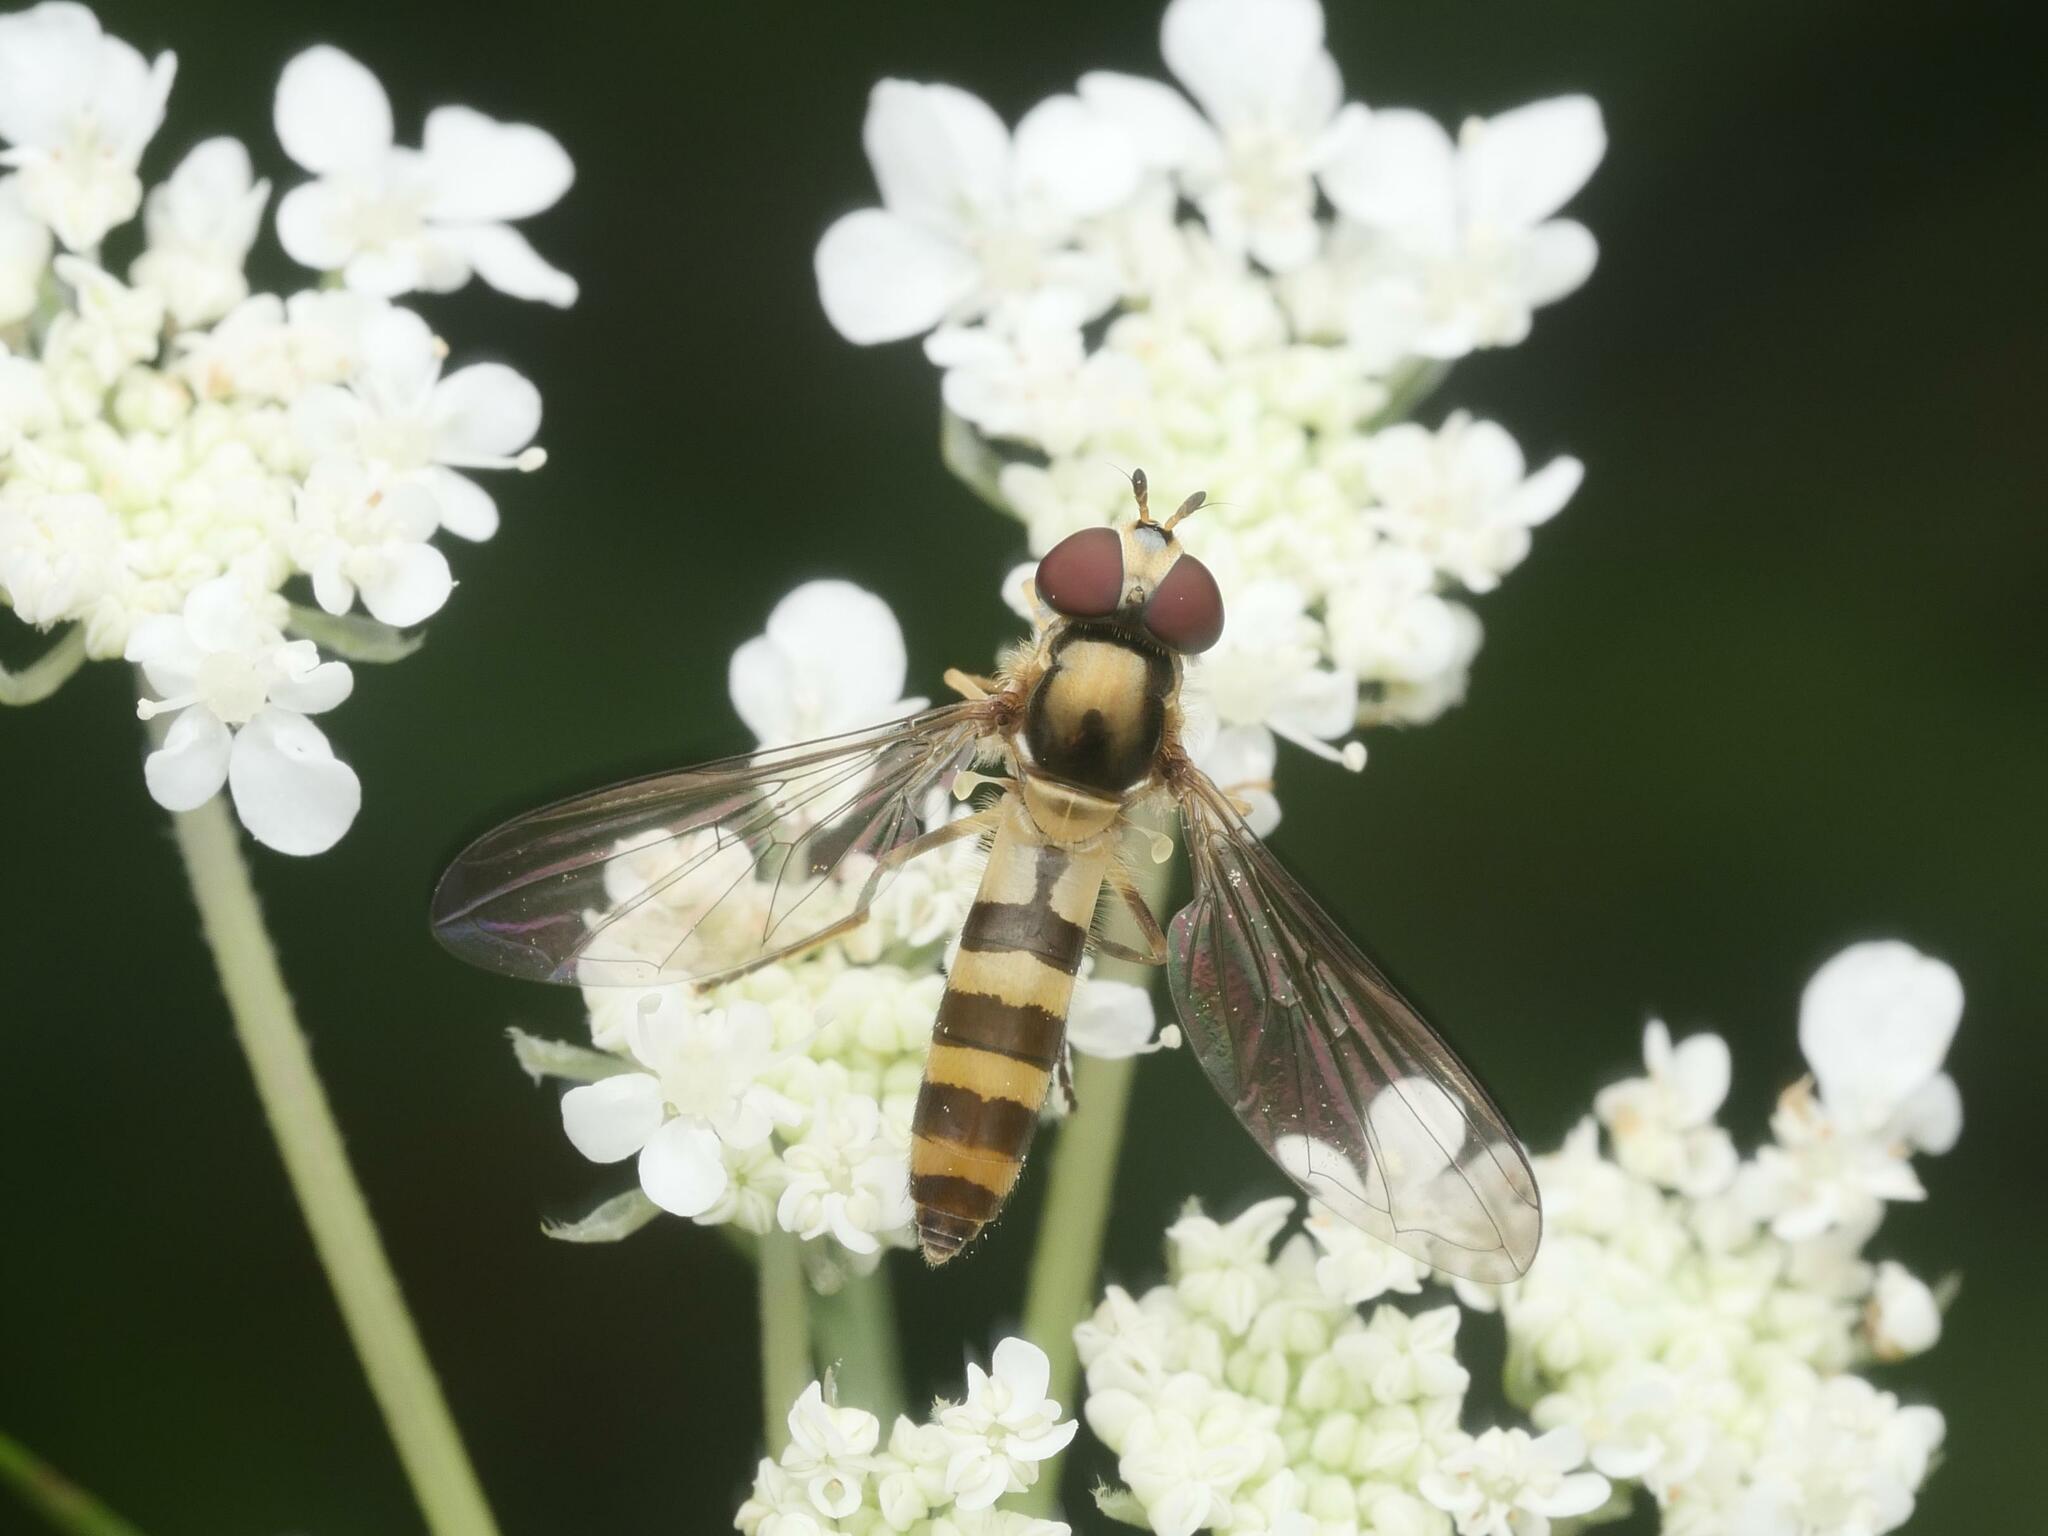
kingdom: Animalia
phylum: Arthropoda
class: Insecta
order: Diptera
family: Syrphidae
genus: Meliscaeva
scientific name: Meliscaeva cinctella
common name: American thintail fly
